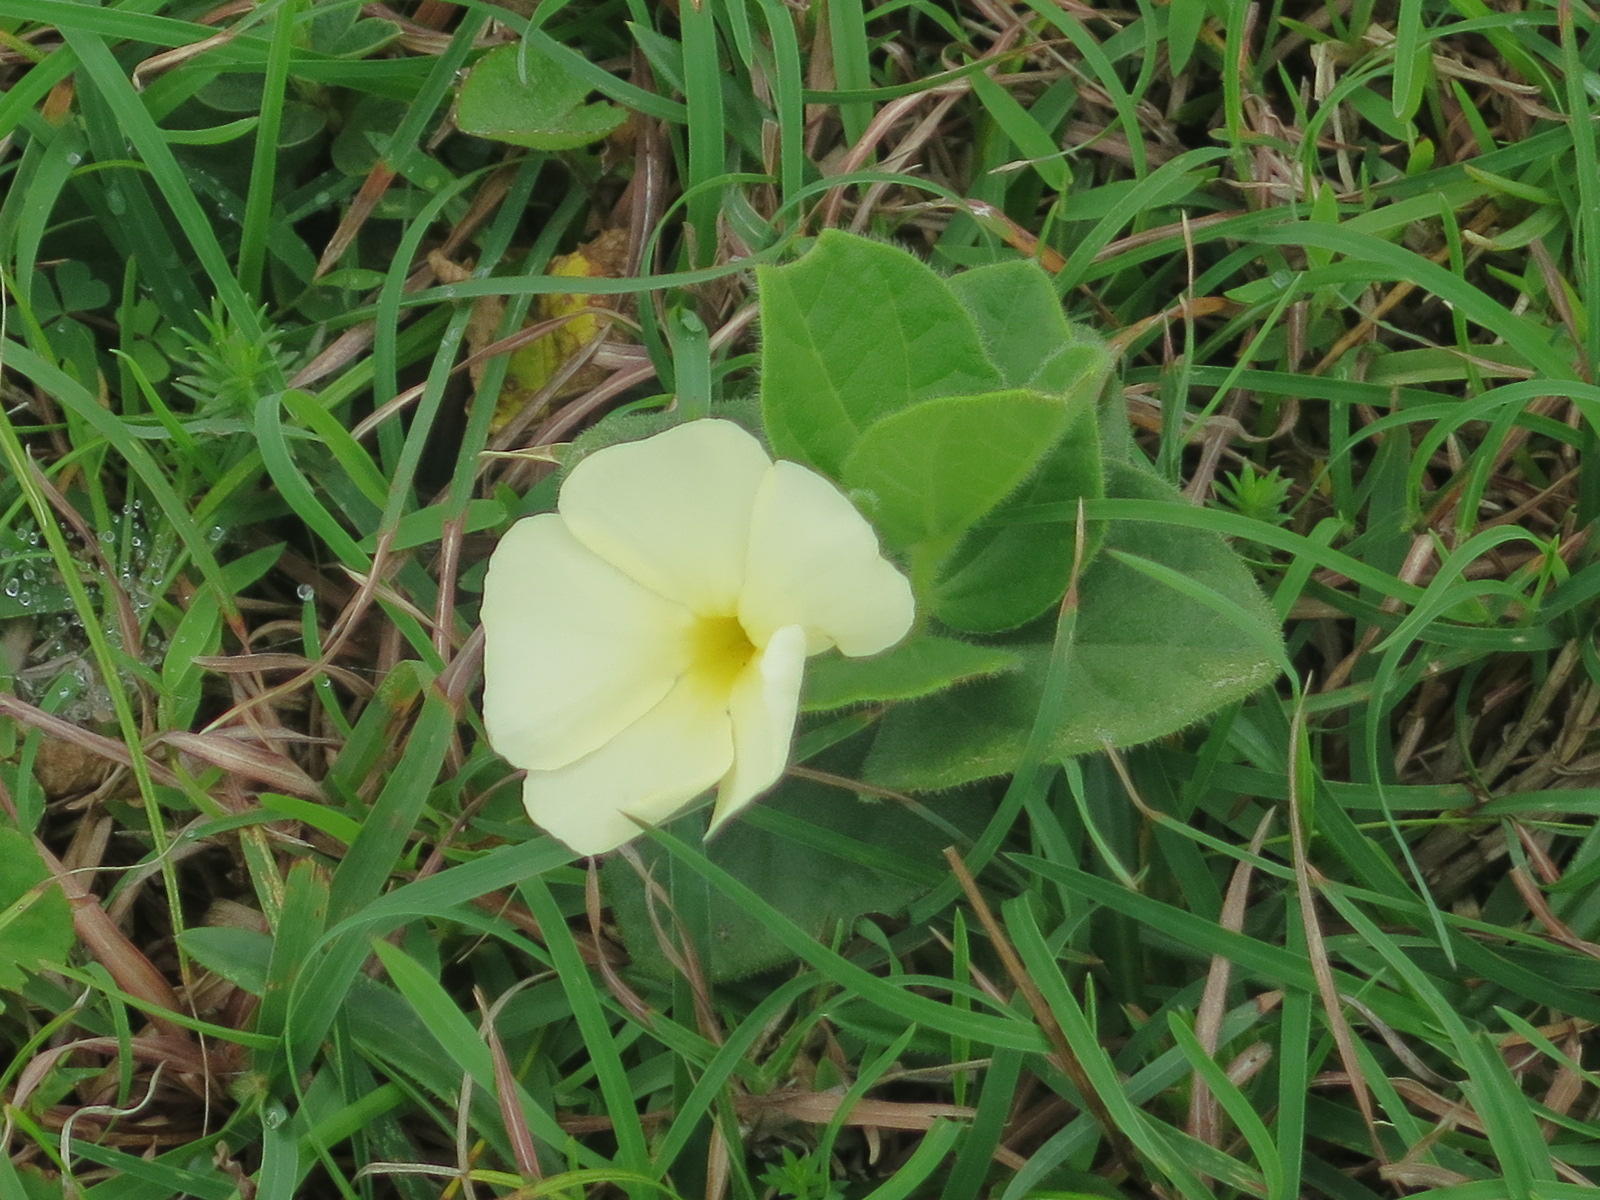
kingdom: Plantae
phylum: Tracheophyta
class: Magnoliopsida
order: Lamiales
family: Acanthaceae
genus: Thunbergia
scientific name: Thunbergia atriplicifolia
